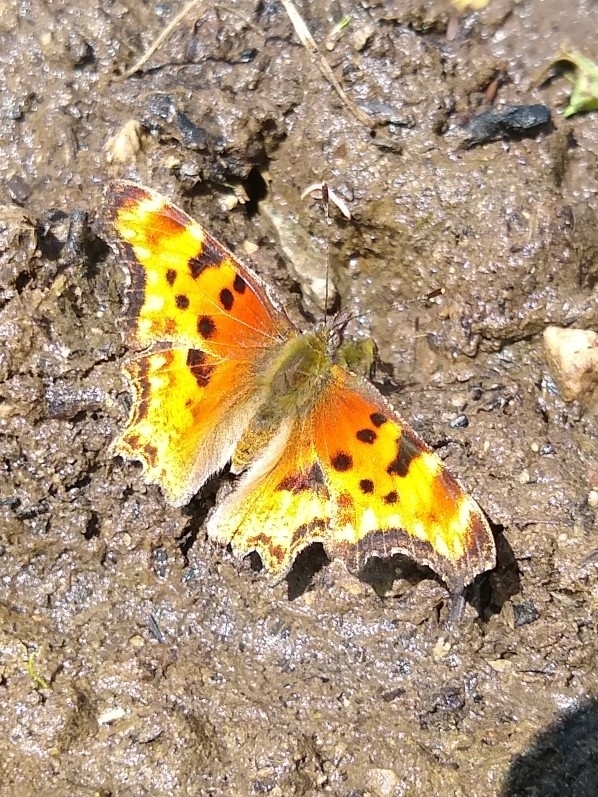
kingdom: Animalia
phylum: Arthropoda
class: Insecta
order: Lepidoptera
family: Nymphalidae
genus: Polygonia
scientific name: Polygonia gracilis
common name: Hoary comma
